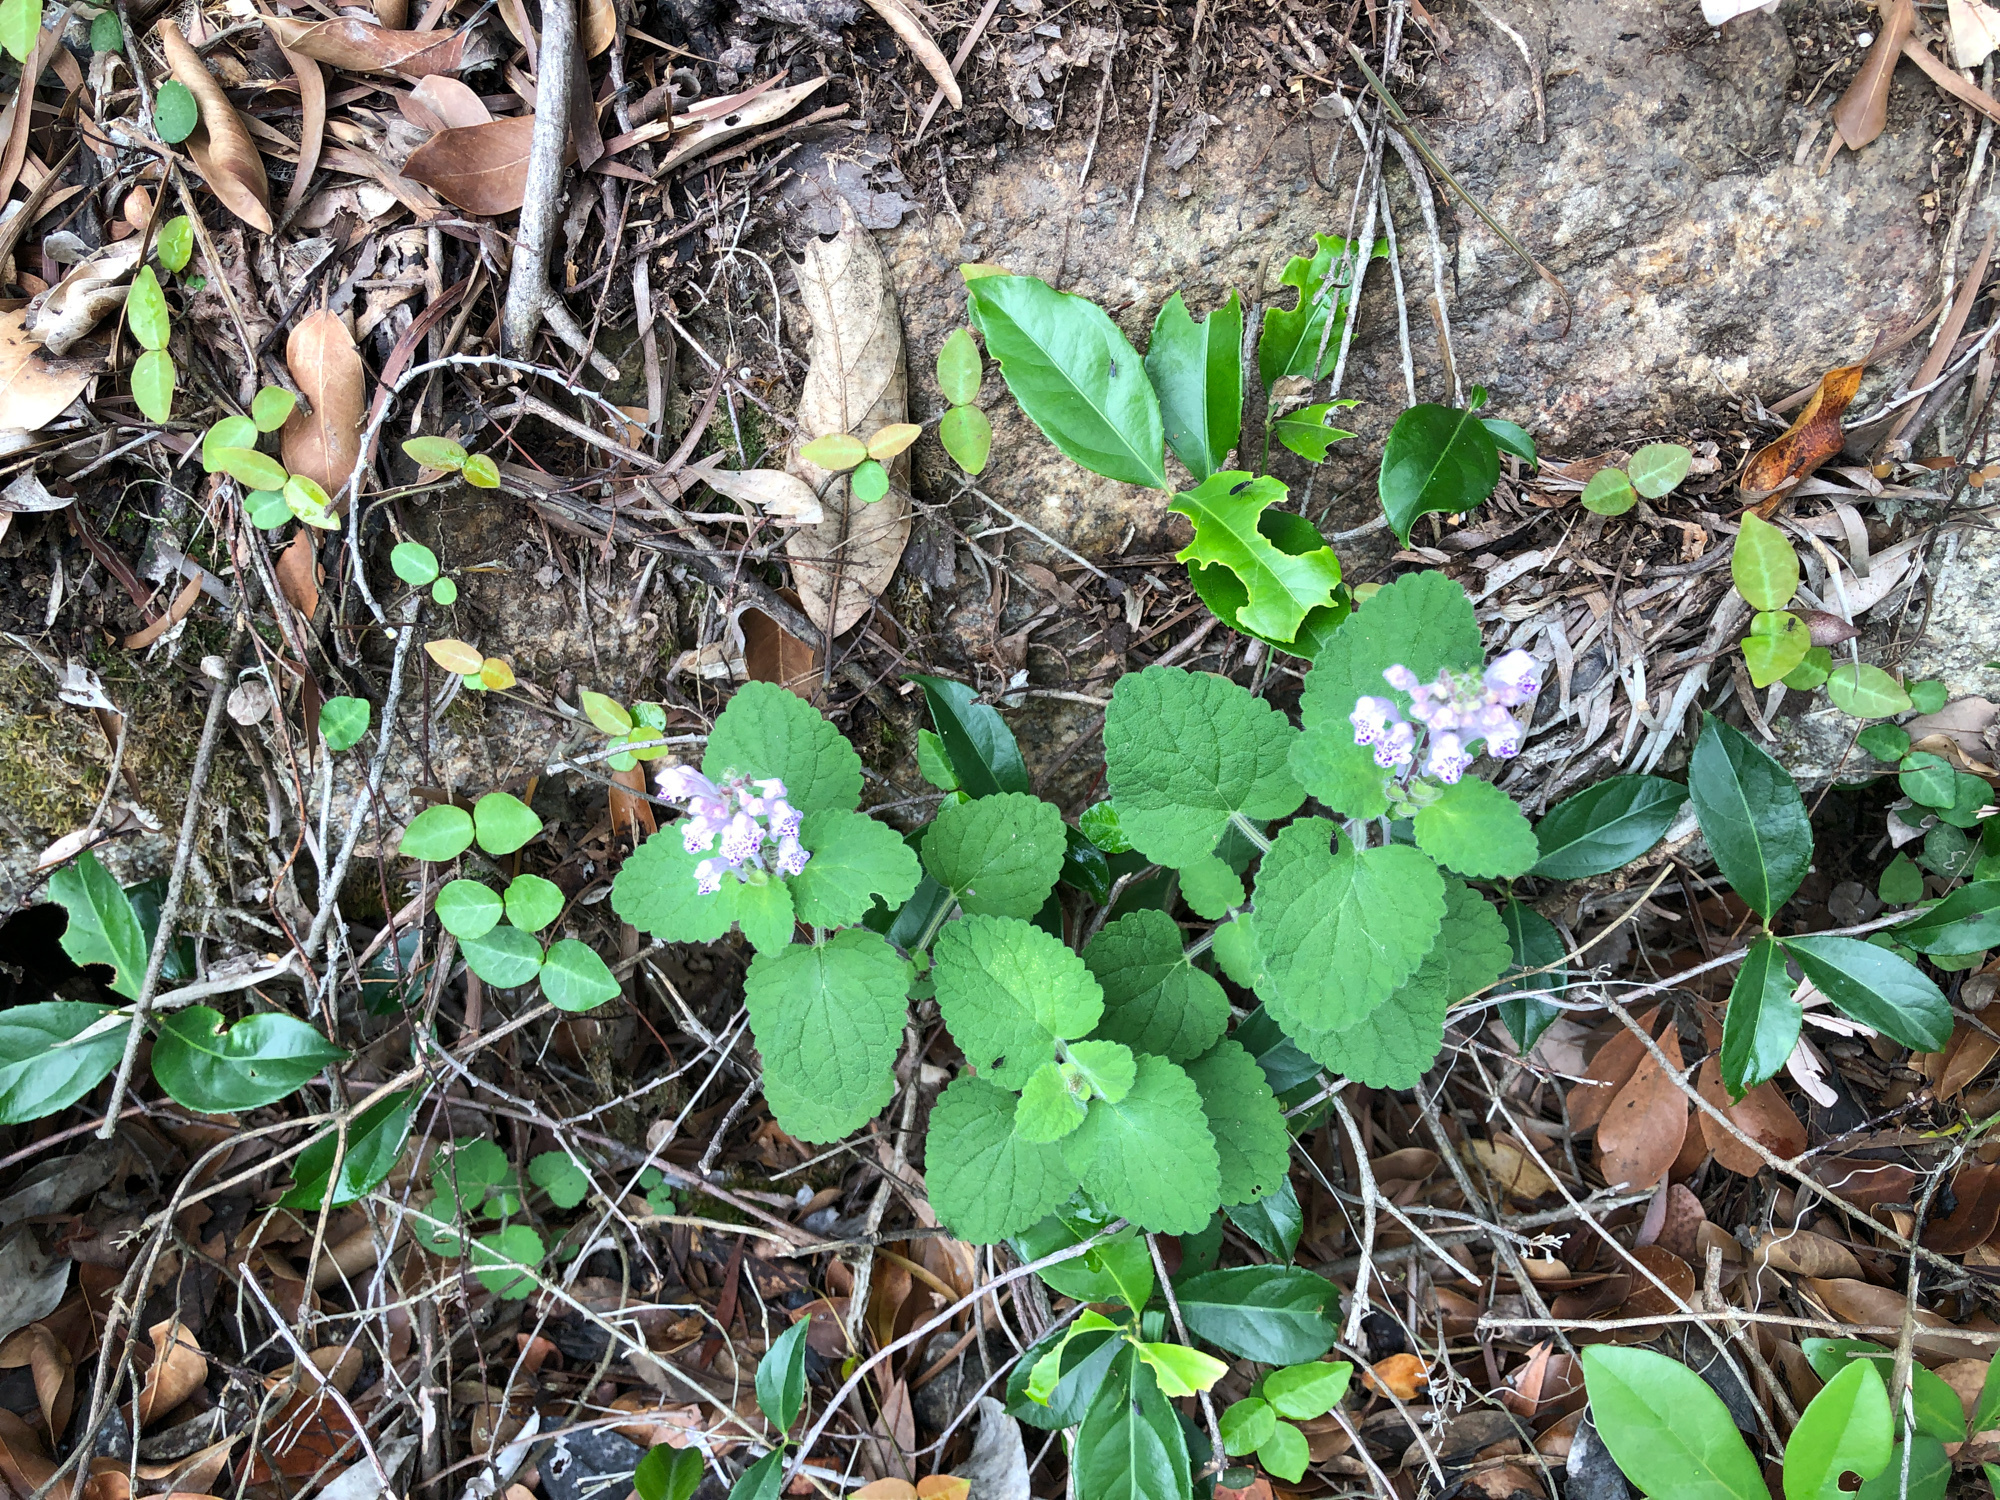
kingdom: Plantae
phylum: Tracheophyta
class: Magnoliopsida
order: Lamiales
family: Lamiaceae
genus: Scutellaria
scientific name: Scutellaria indica
